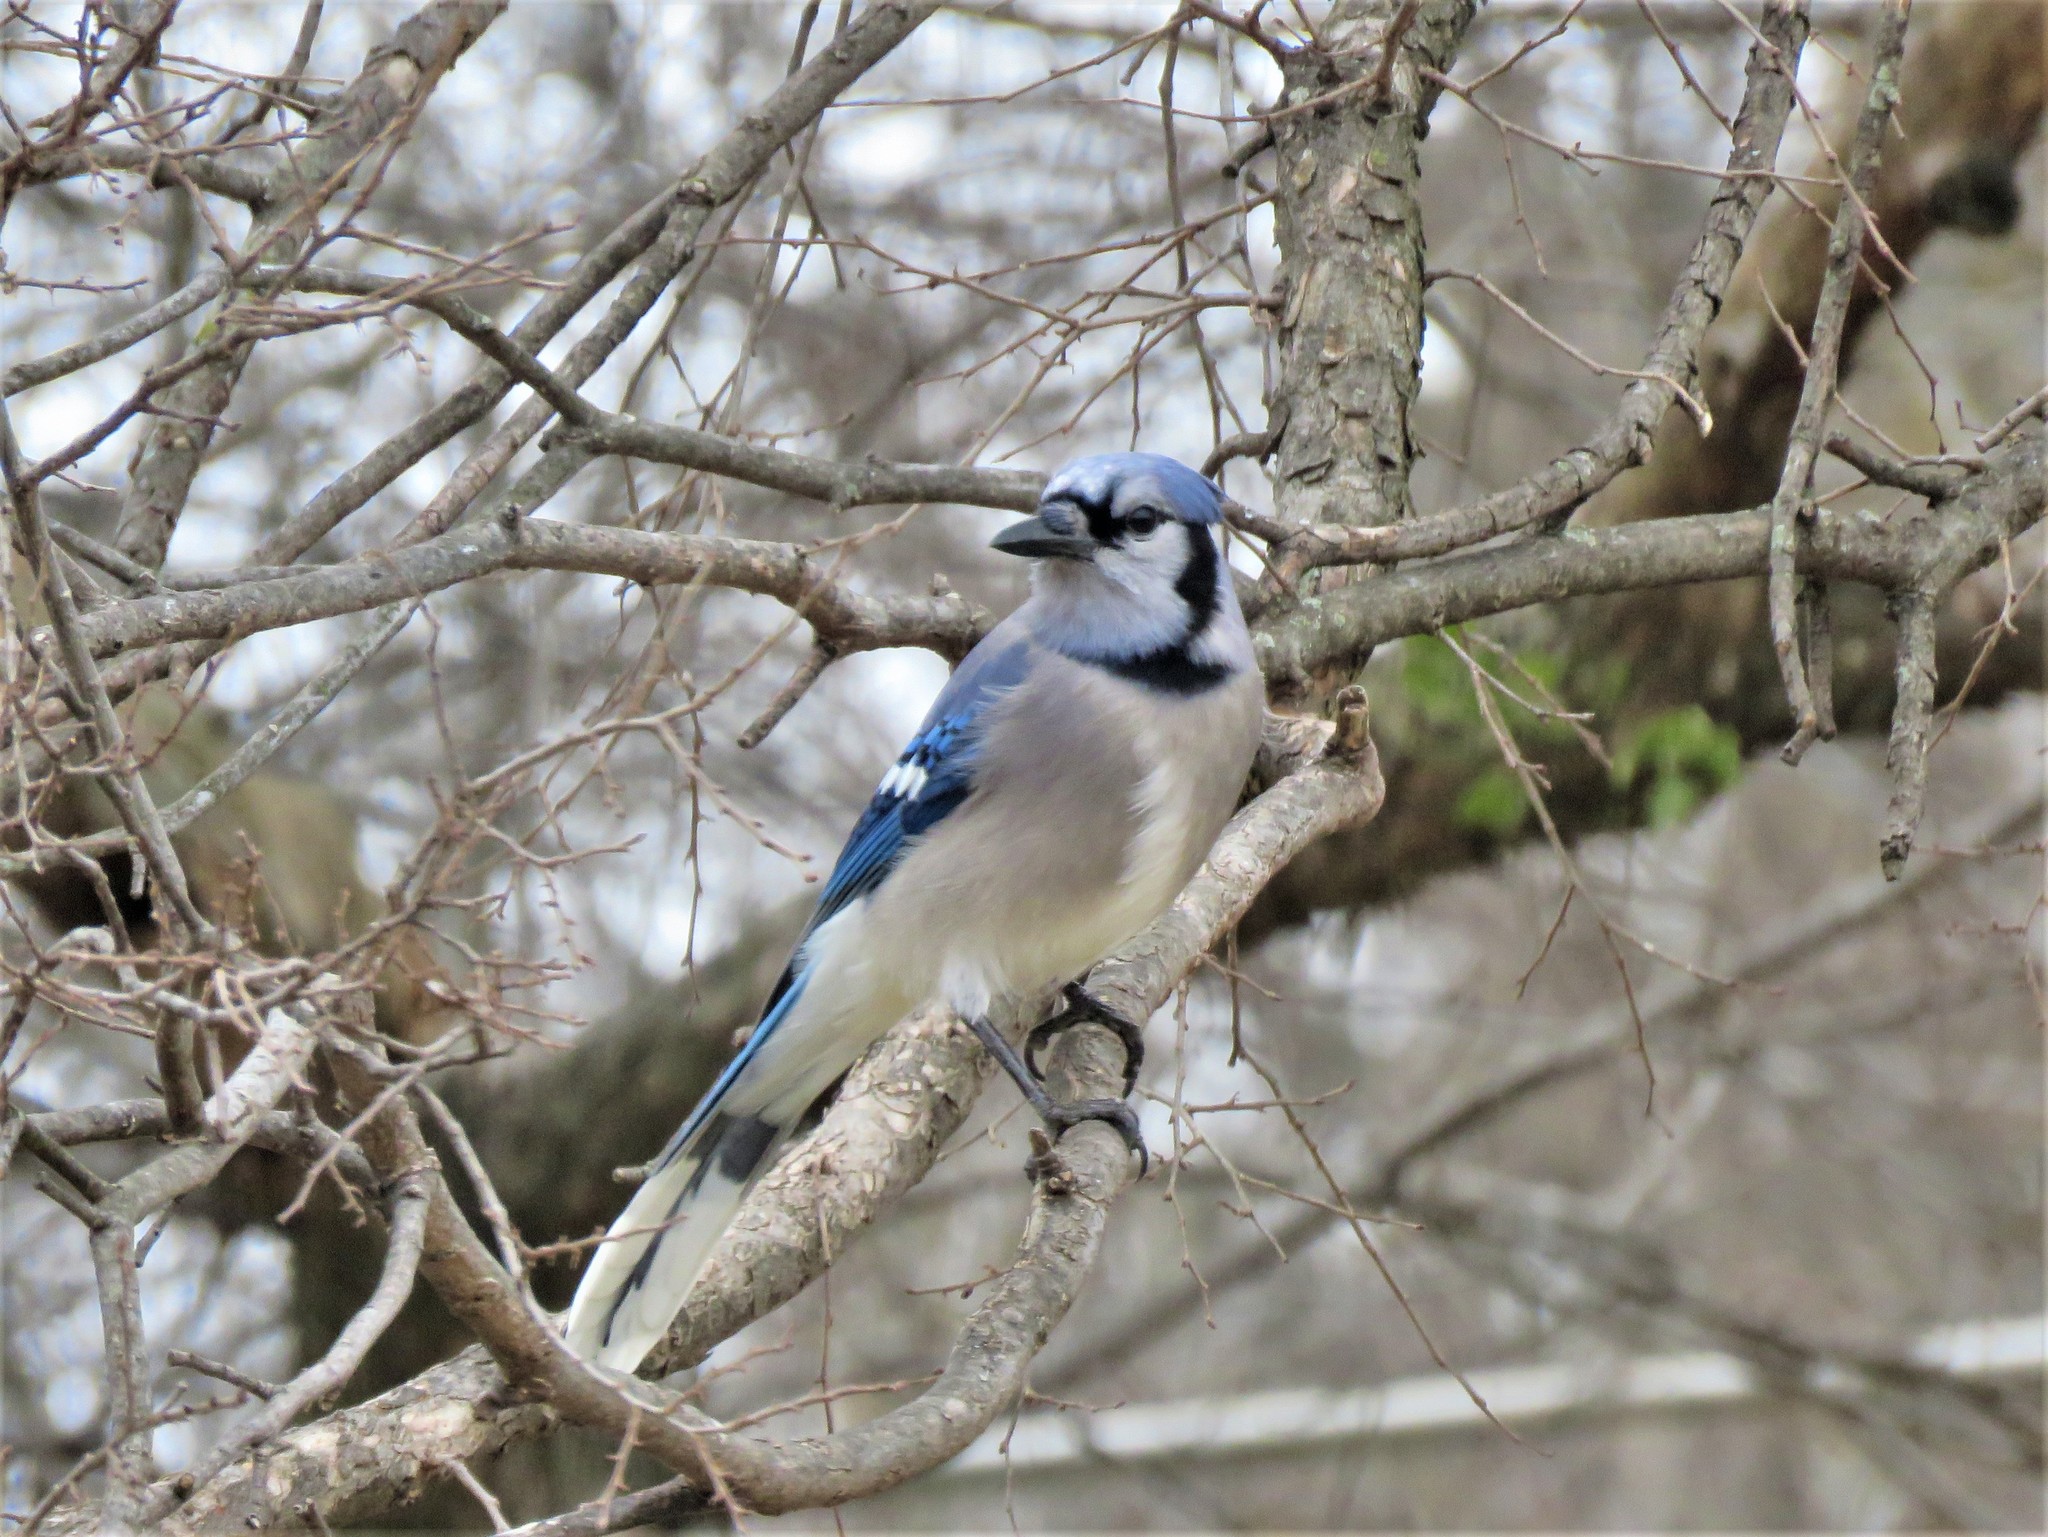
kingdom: Animalia
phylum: Chordata
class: Aves
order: Passeriformes
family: Corvidae
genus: Cyanocitta
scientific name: Cyanocitta cristata
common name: Blue jay
